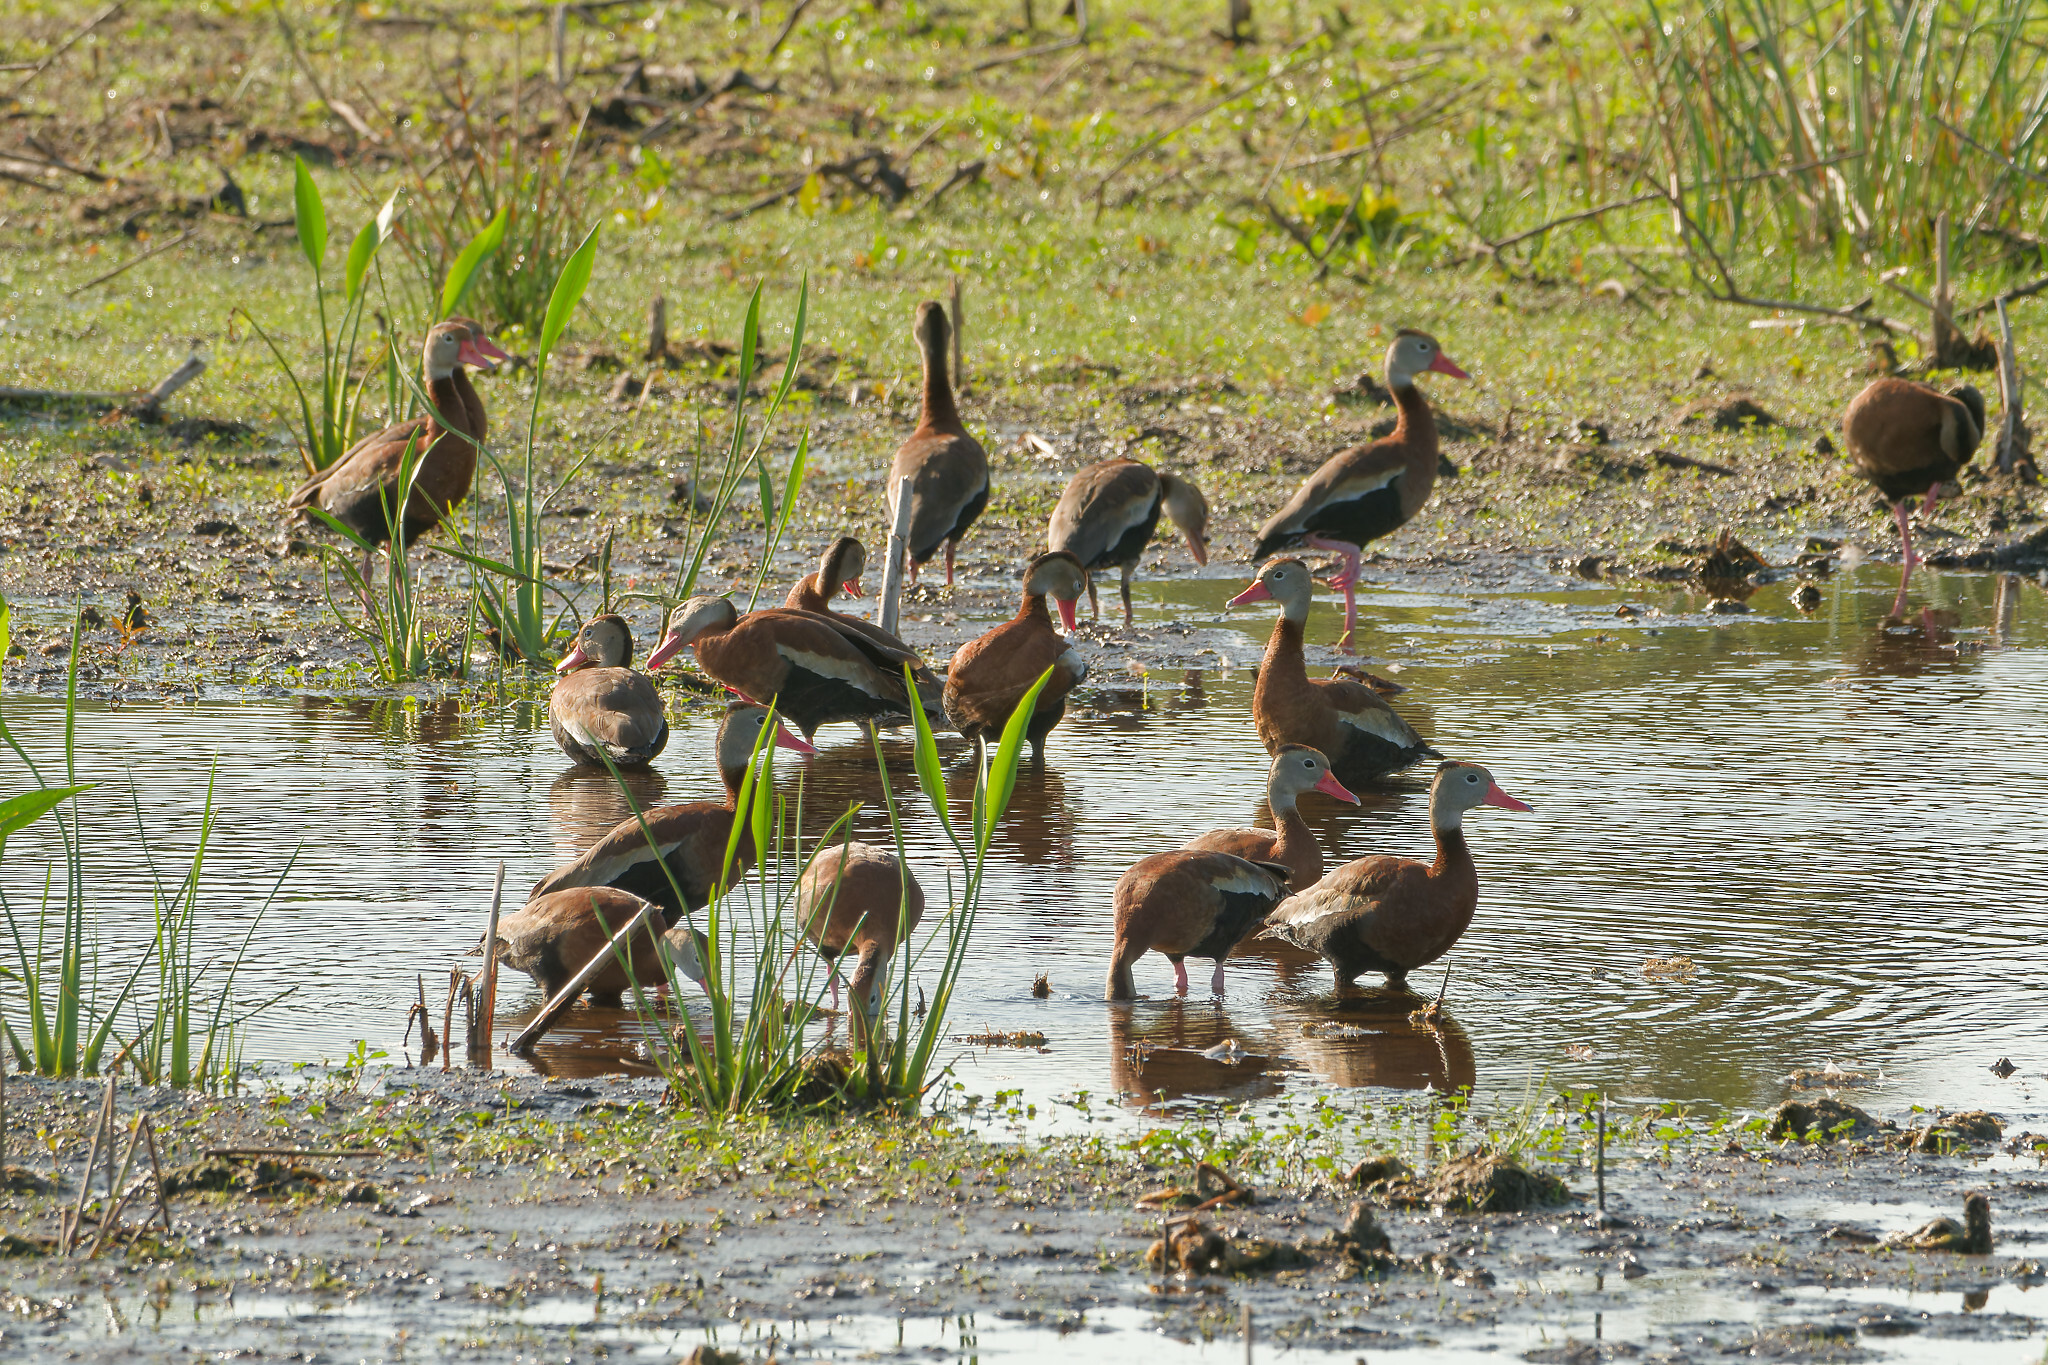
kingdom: Animalia
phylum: Chordata
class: Aves
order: Anseriformes
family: Anatidae
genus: Dendrocygna
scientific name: Dendrocygna autumnalis
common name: Black-bellied whistling duck
